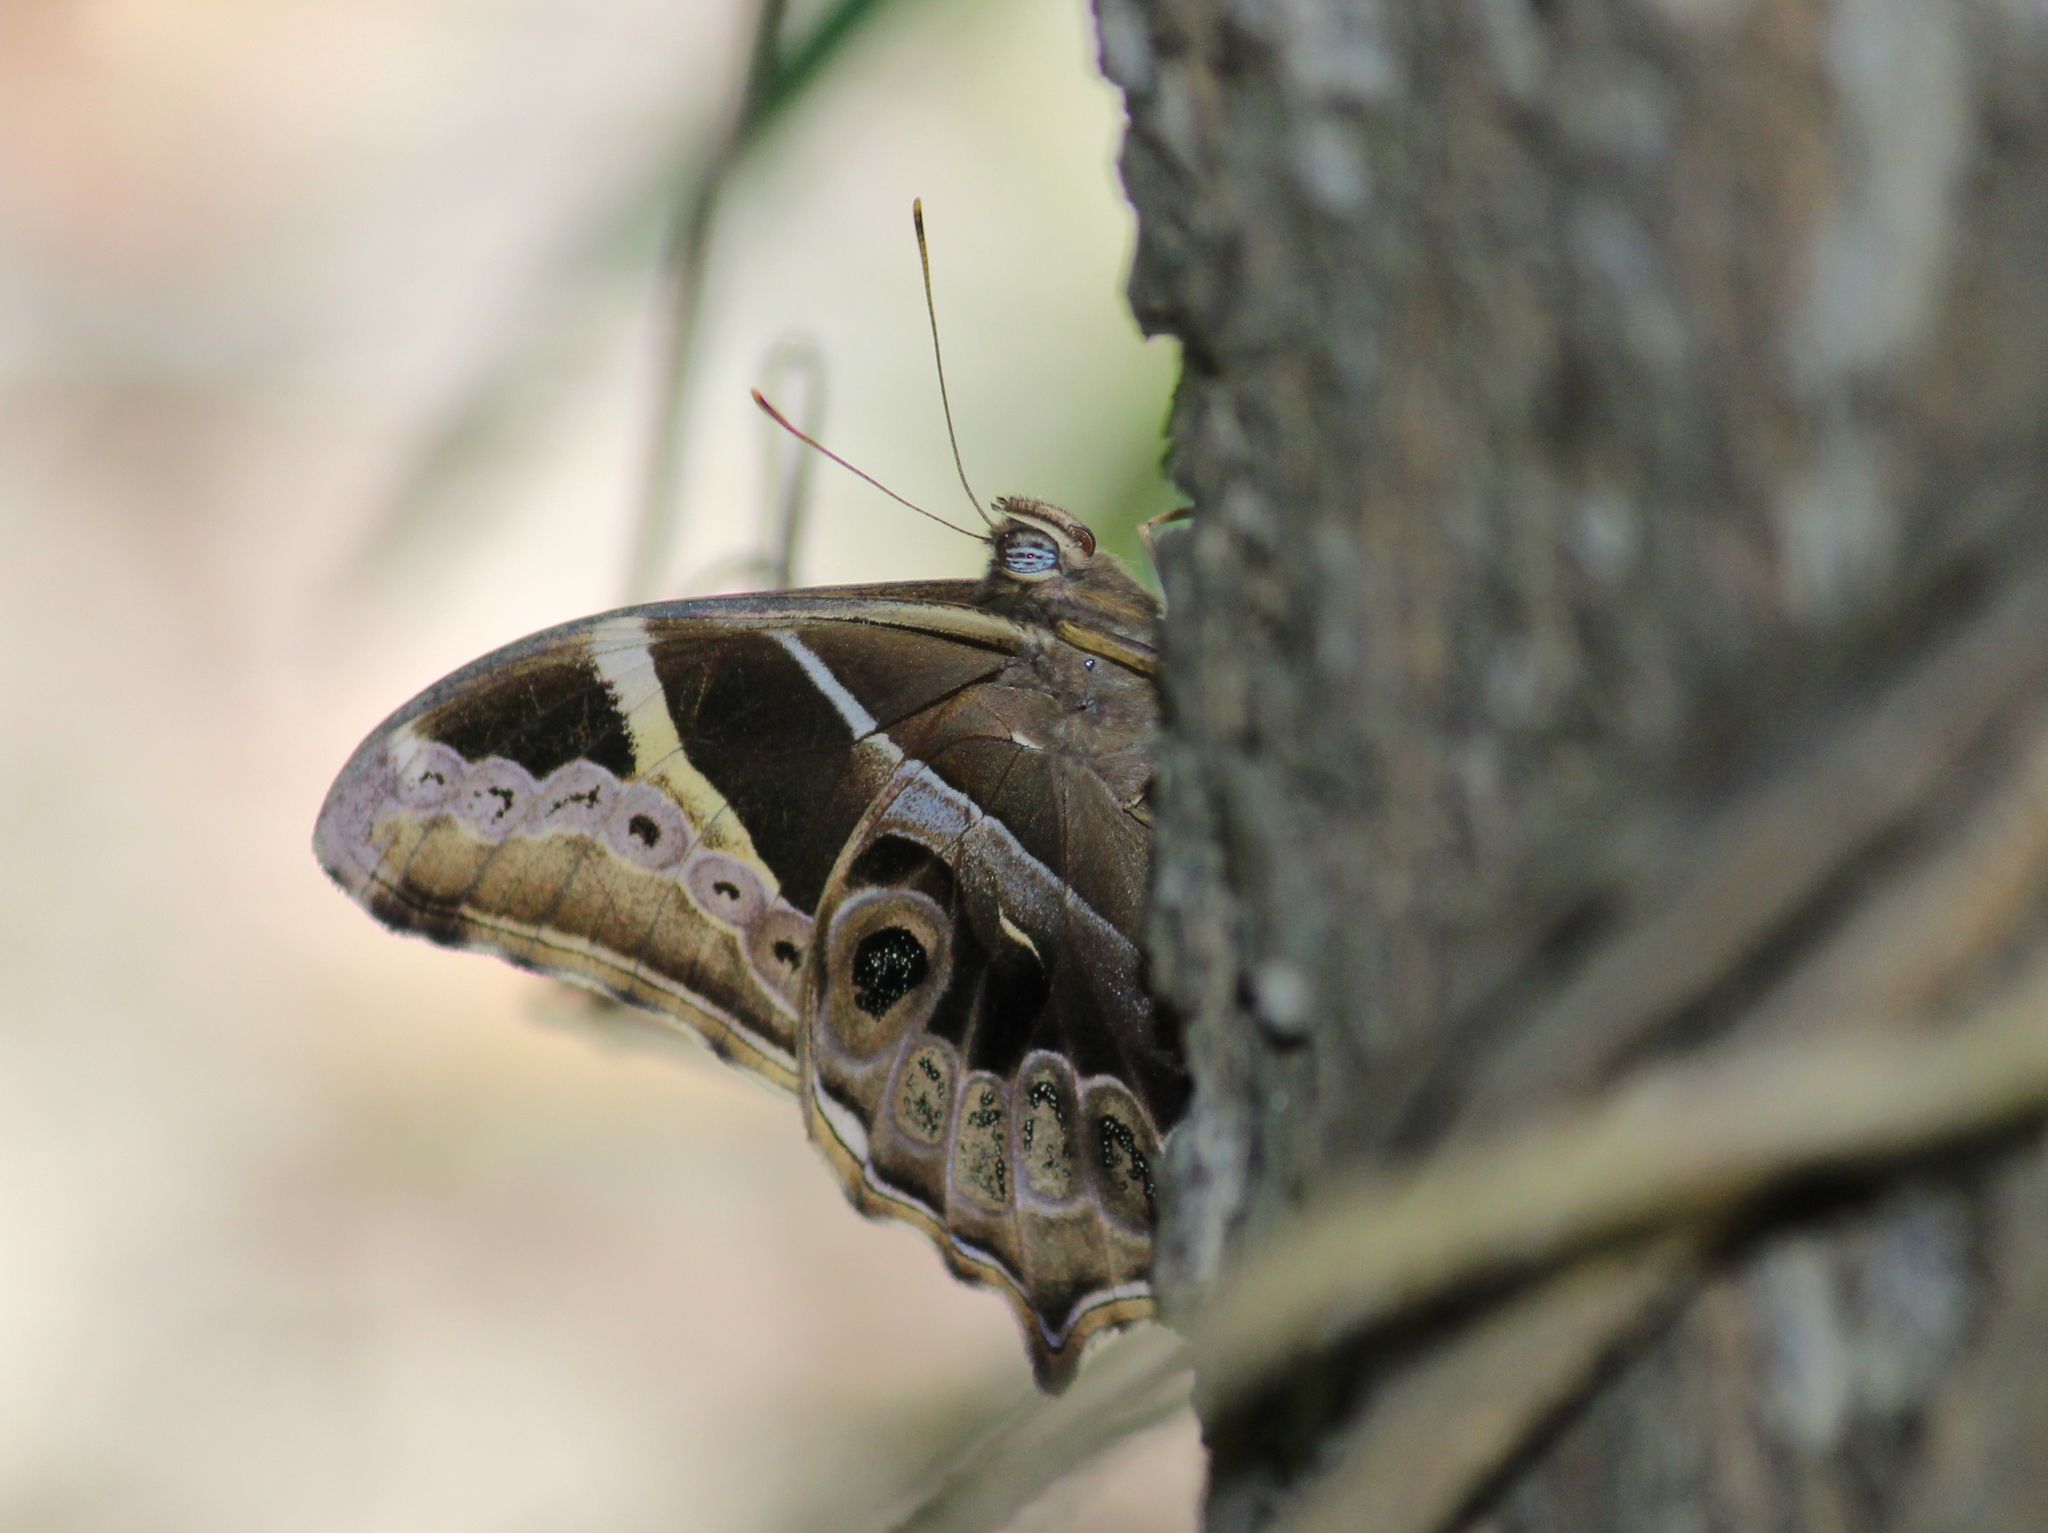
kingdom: Animalia
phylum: Arthropoda
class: Insecta
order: Lepidoptera
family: Nymphalidae
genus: Lethe
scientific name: Lethe europa
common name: Bamboo treebrown
